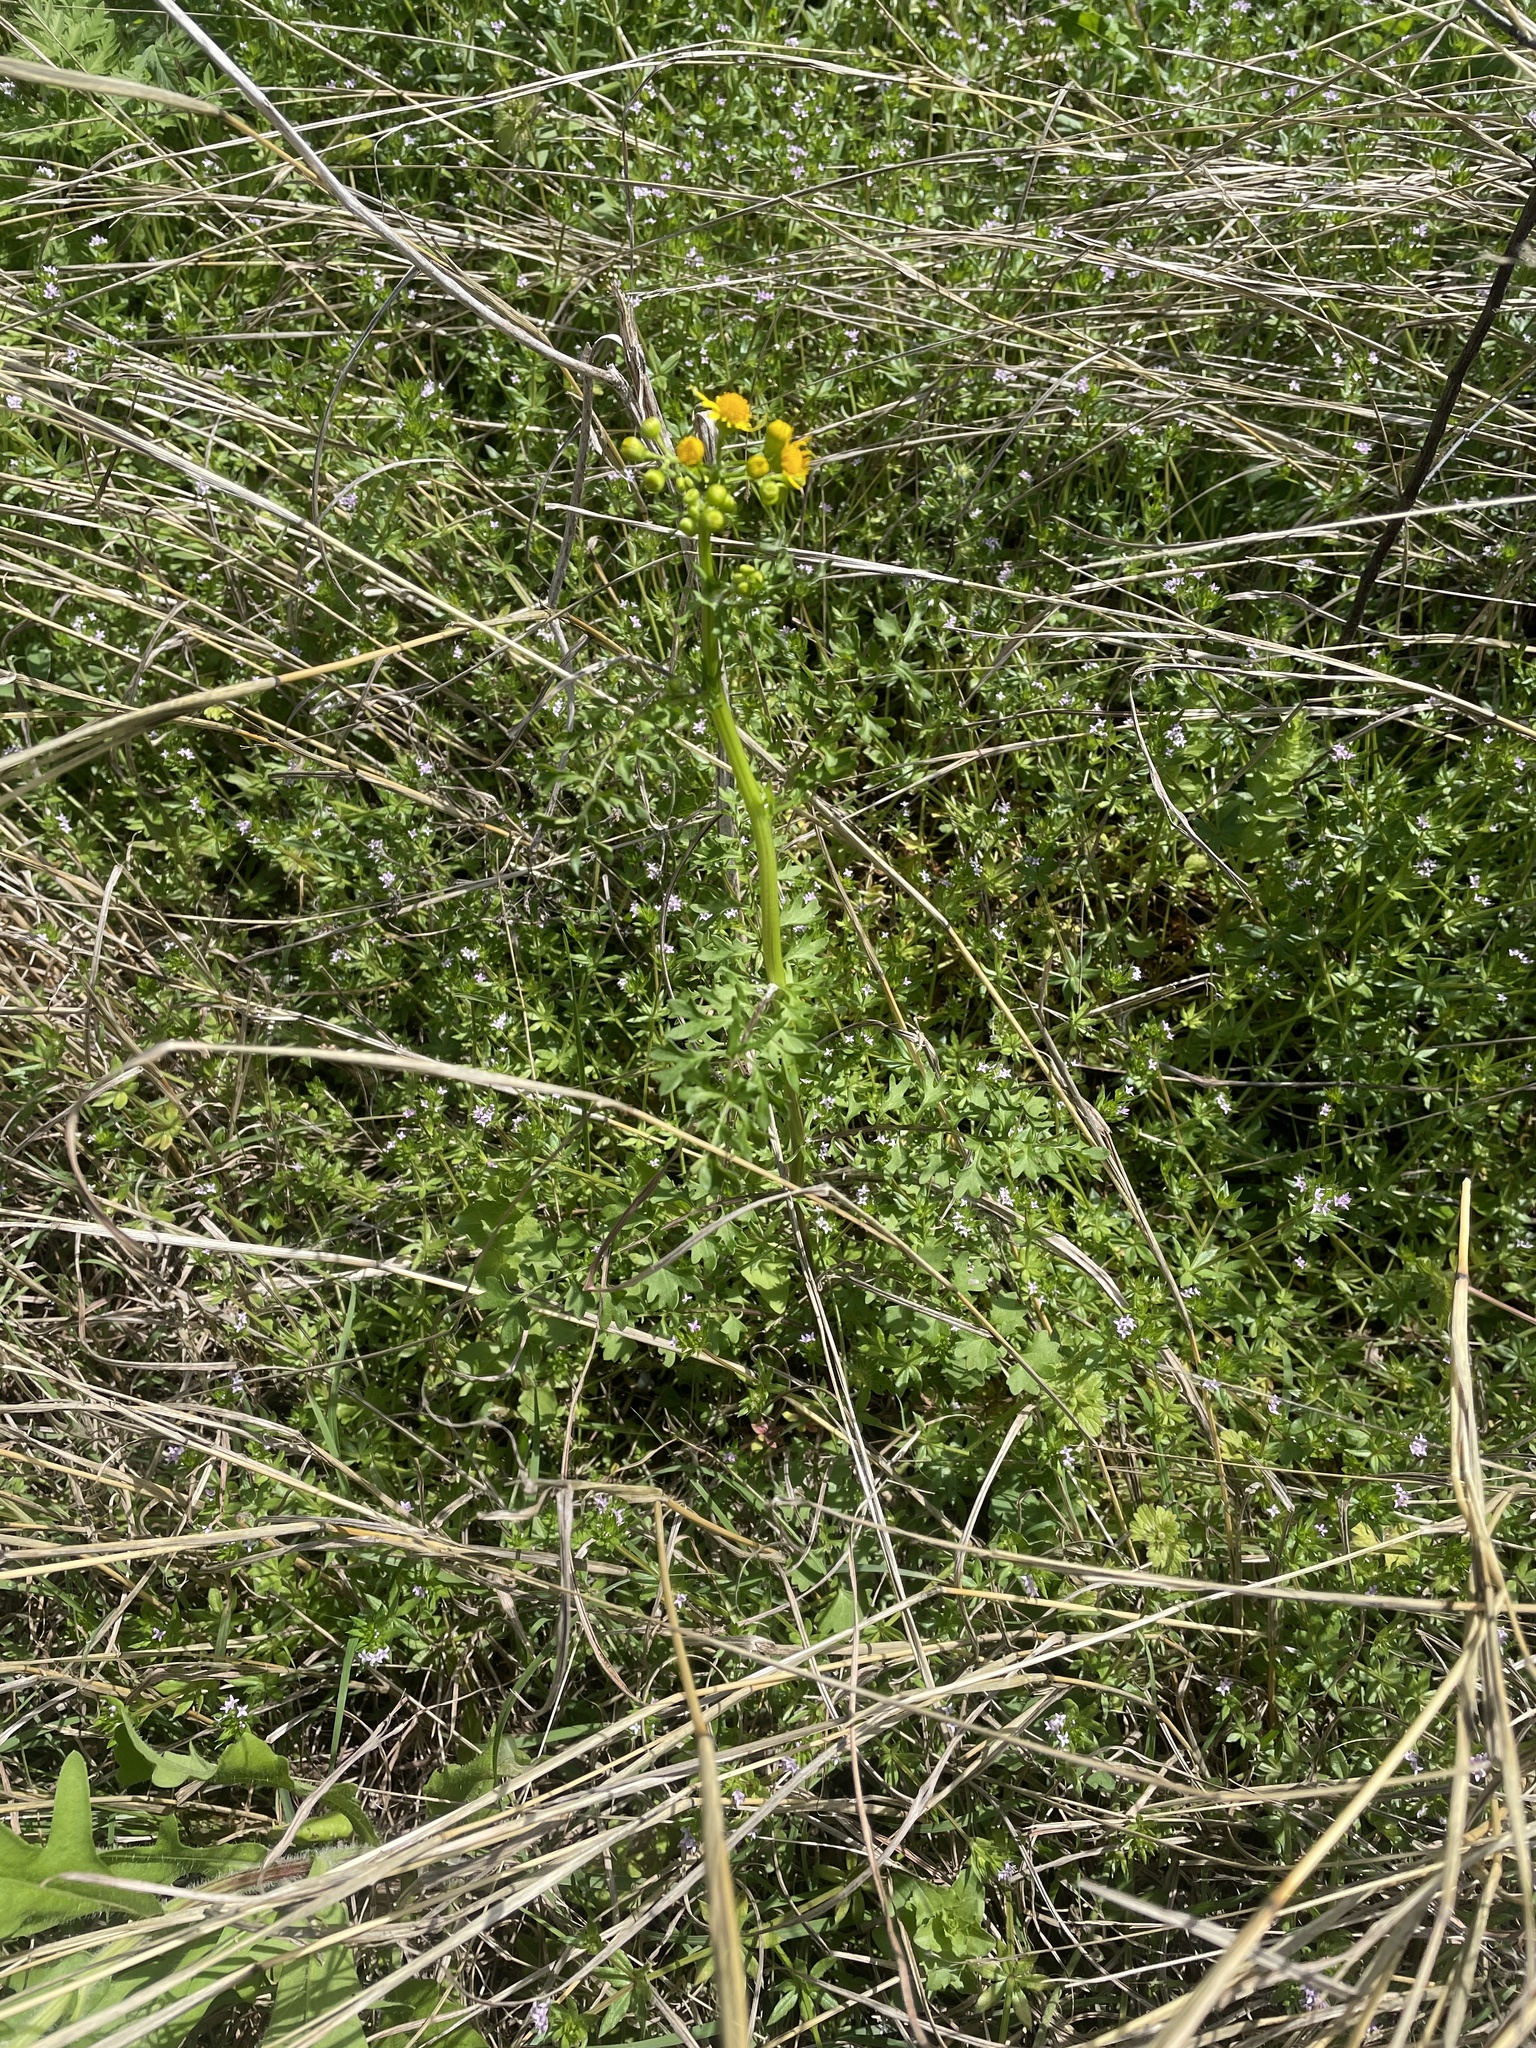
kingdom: Plantae
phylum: Tracheophyta
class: Magnoliopsida
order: Asterales
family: Asteraceae
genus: Packera
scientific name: Packera tampicana
